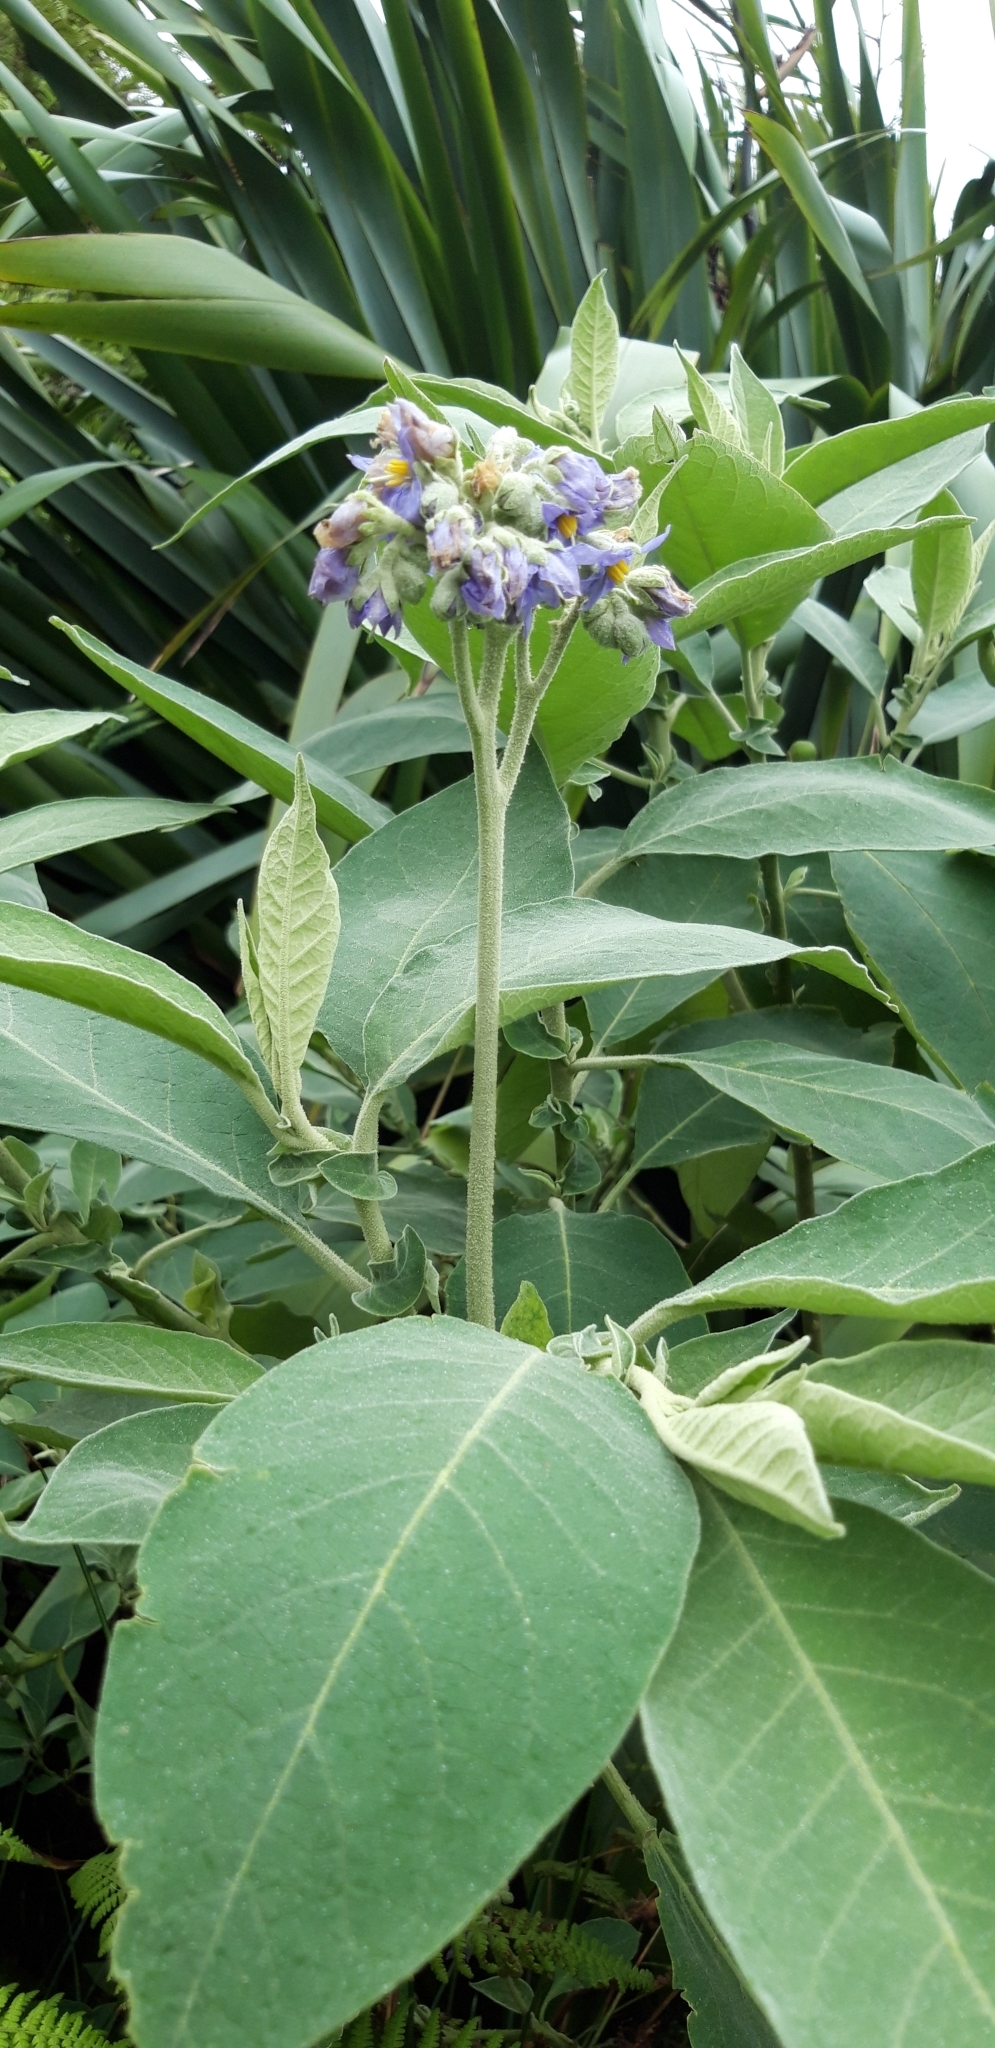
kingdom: Plantae
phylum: Tracheophyta
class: Magnoliopsida
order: Solanales
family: Solanaceae
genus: Solanum
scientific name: Solanum mauritianum
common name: Earleaf nightshade
